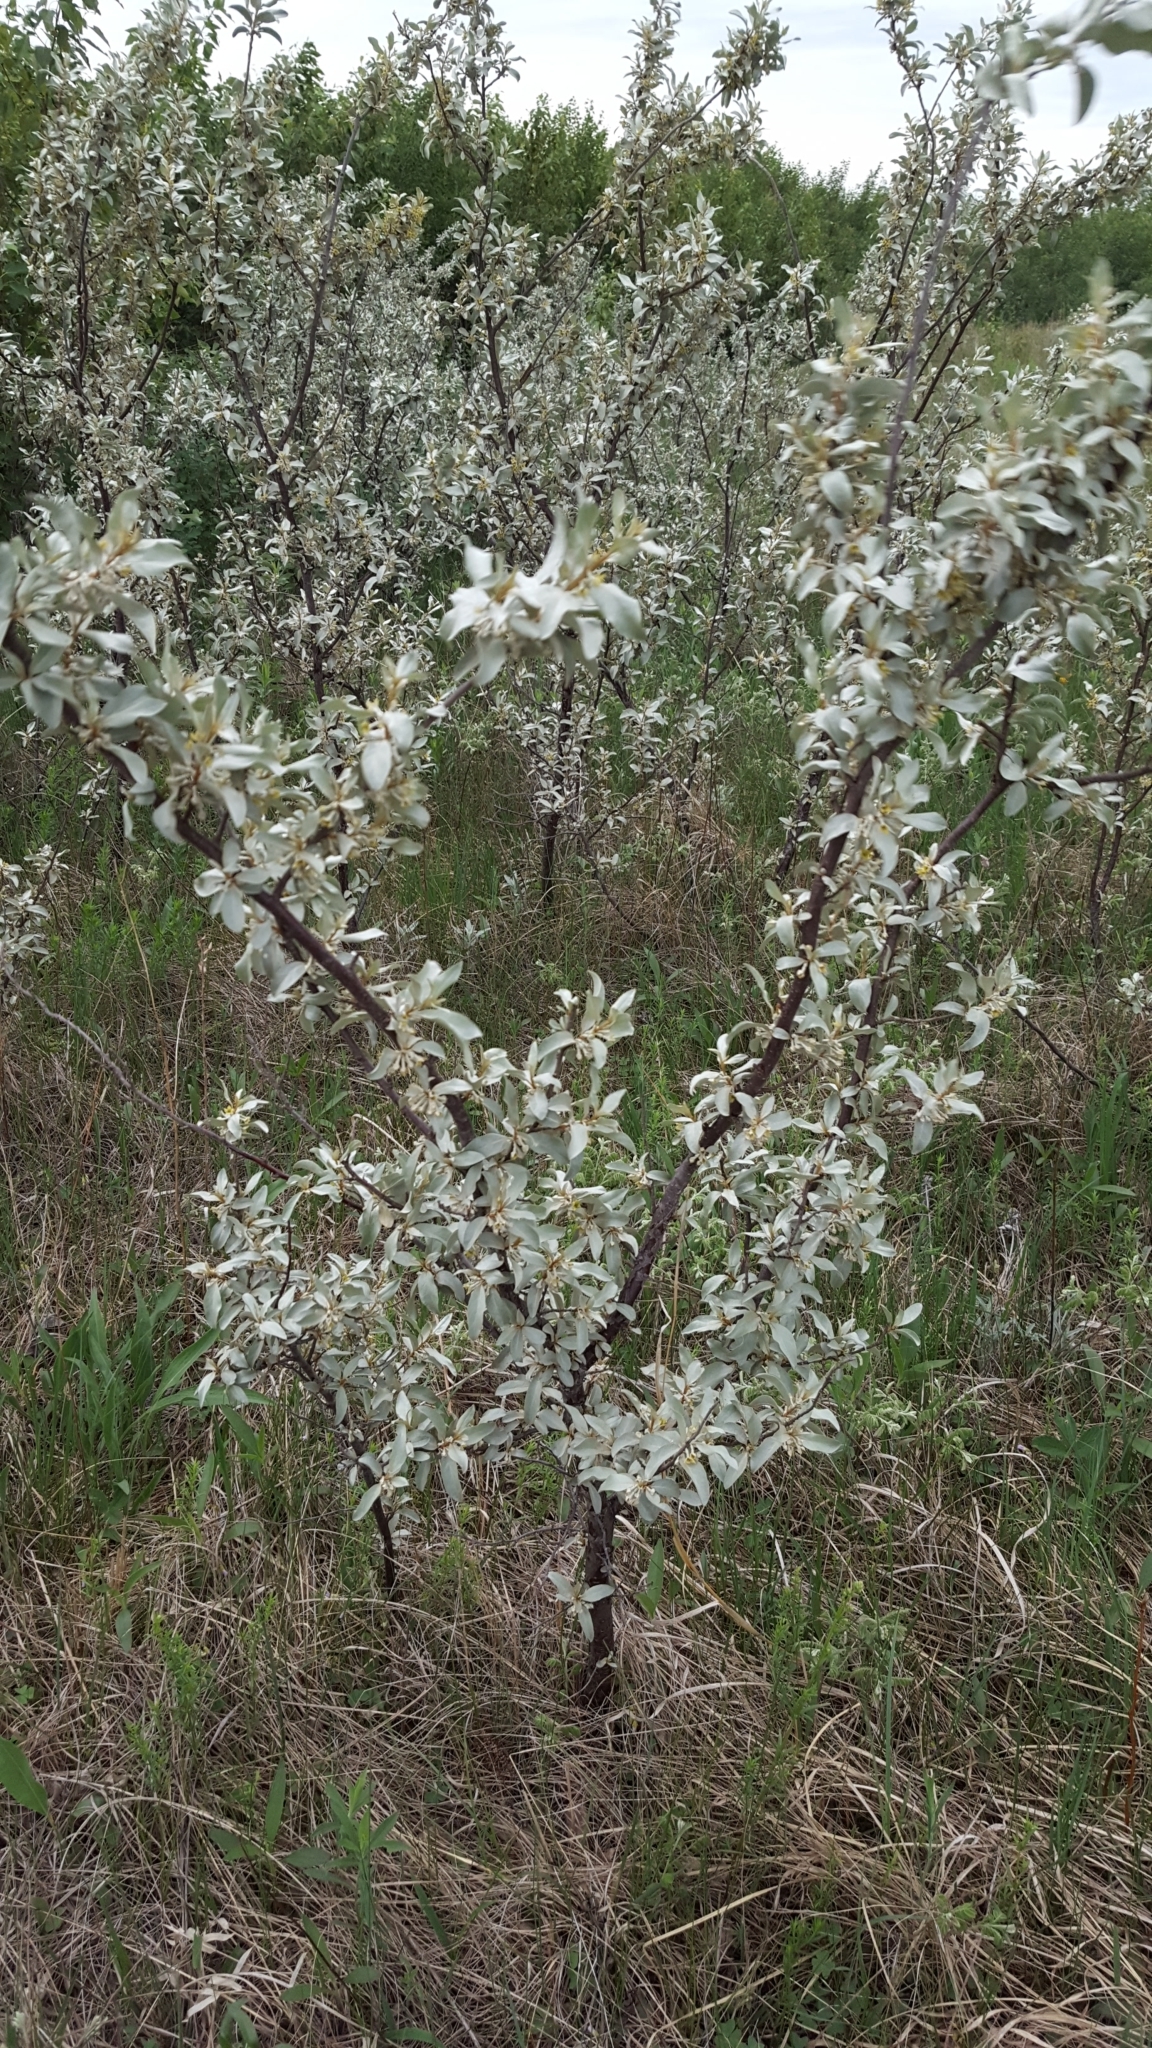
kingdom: Plantae
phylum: Tracheophyta
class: Magnoliopsida
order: Rosales
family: Elaeagnaceae
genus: Elaeagnus
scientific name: Elaeagnus commutata
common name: Silverberry
